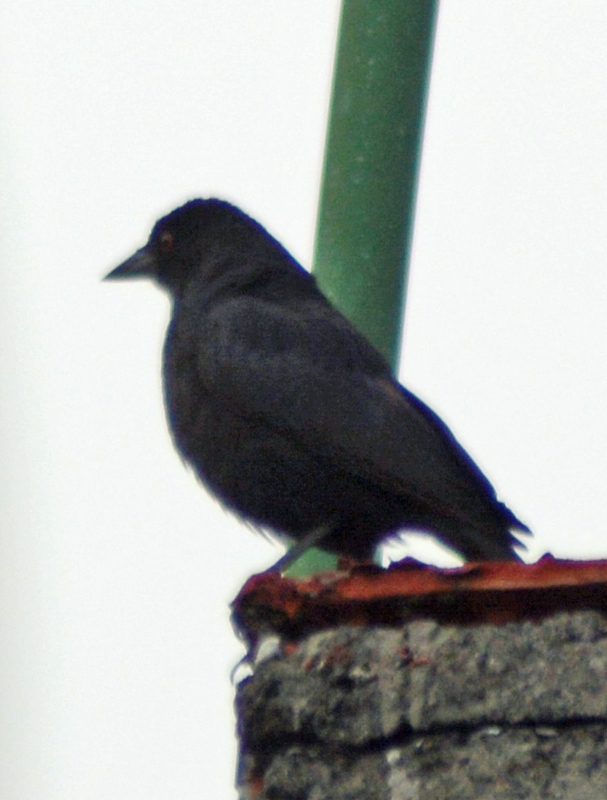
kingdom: Animalia
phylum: Chordata
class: Aves
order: Passeriformes
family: Icteridae
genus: Molothrus
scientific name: Molothrus aeneus
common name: Bronzed cowbird
